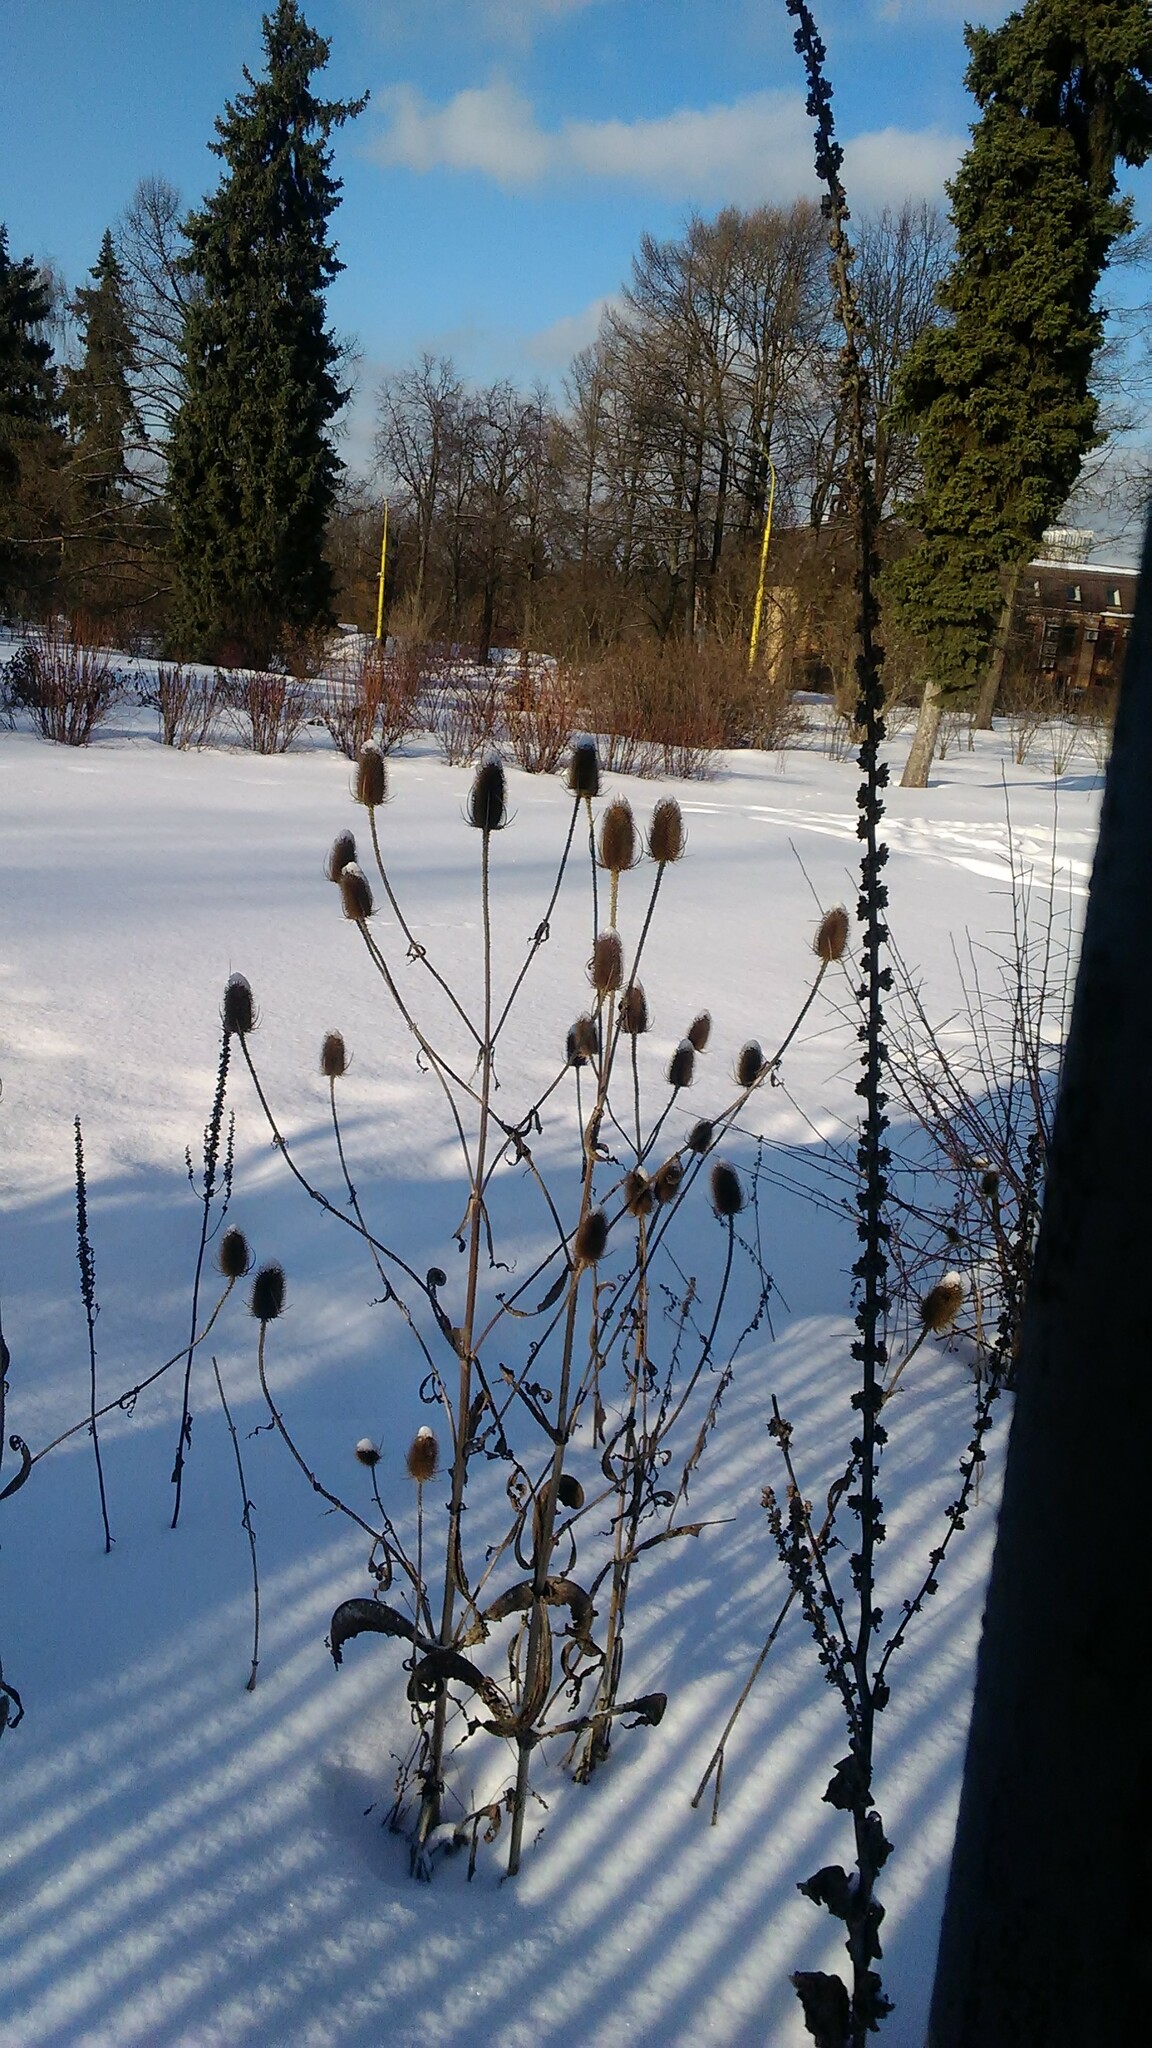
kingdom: Plantae
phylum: Tracheophyta
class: Magnoliopsida
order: Dipsacales
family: Caprifoliaceae
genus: Dipsacus
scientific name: Dipsacus fullonum
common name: Teasel
